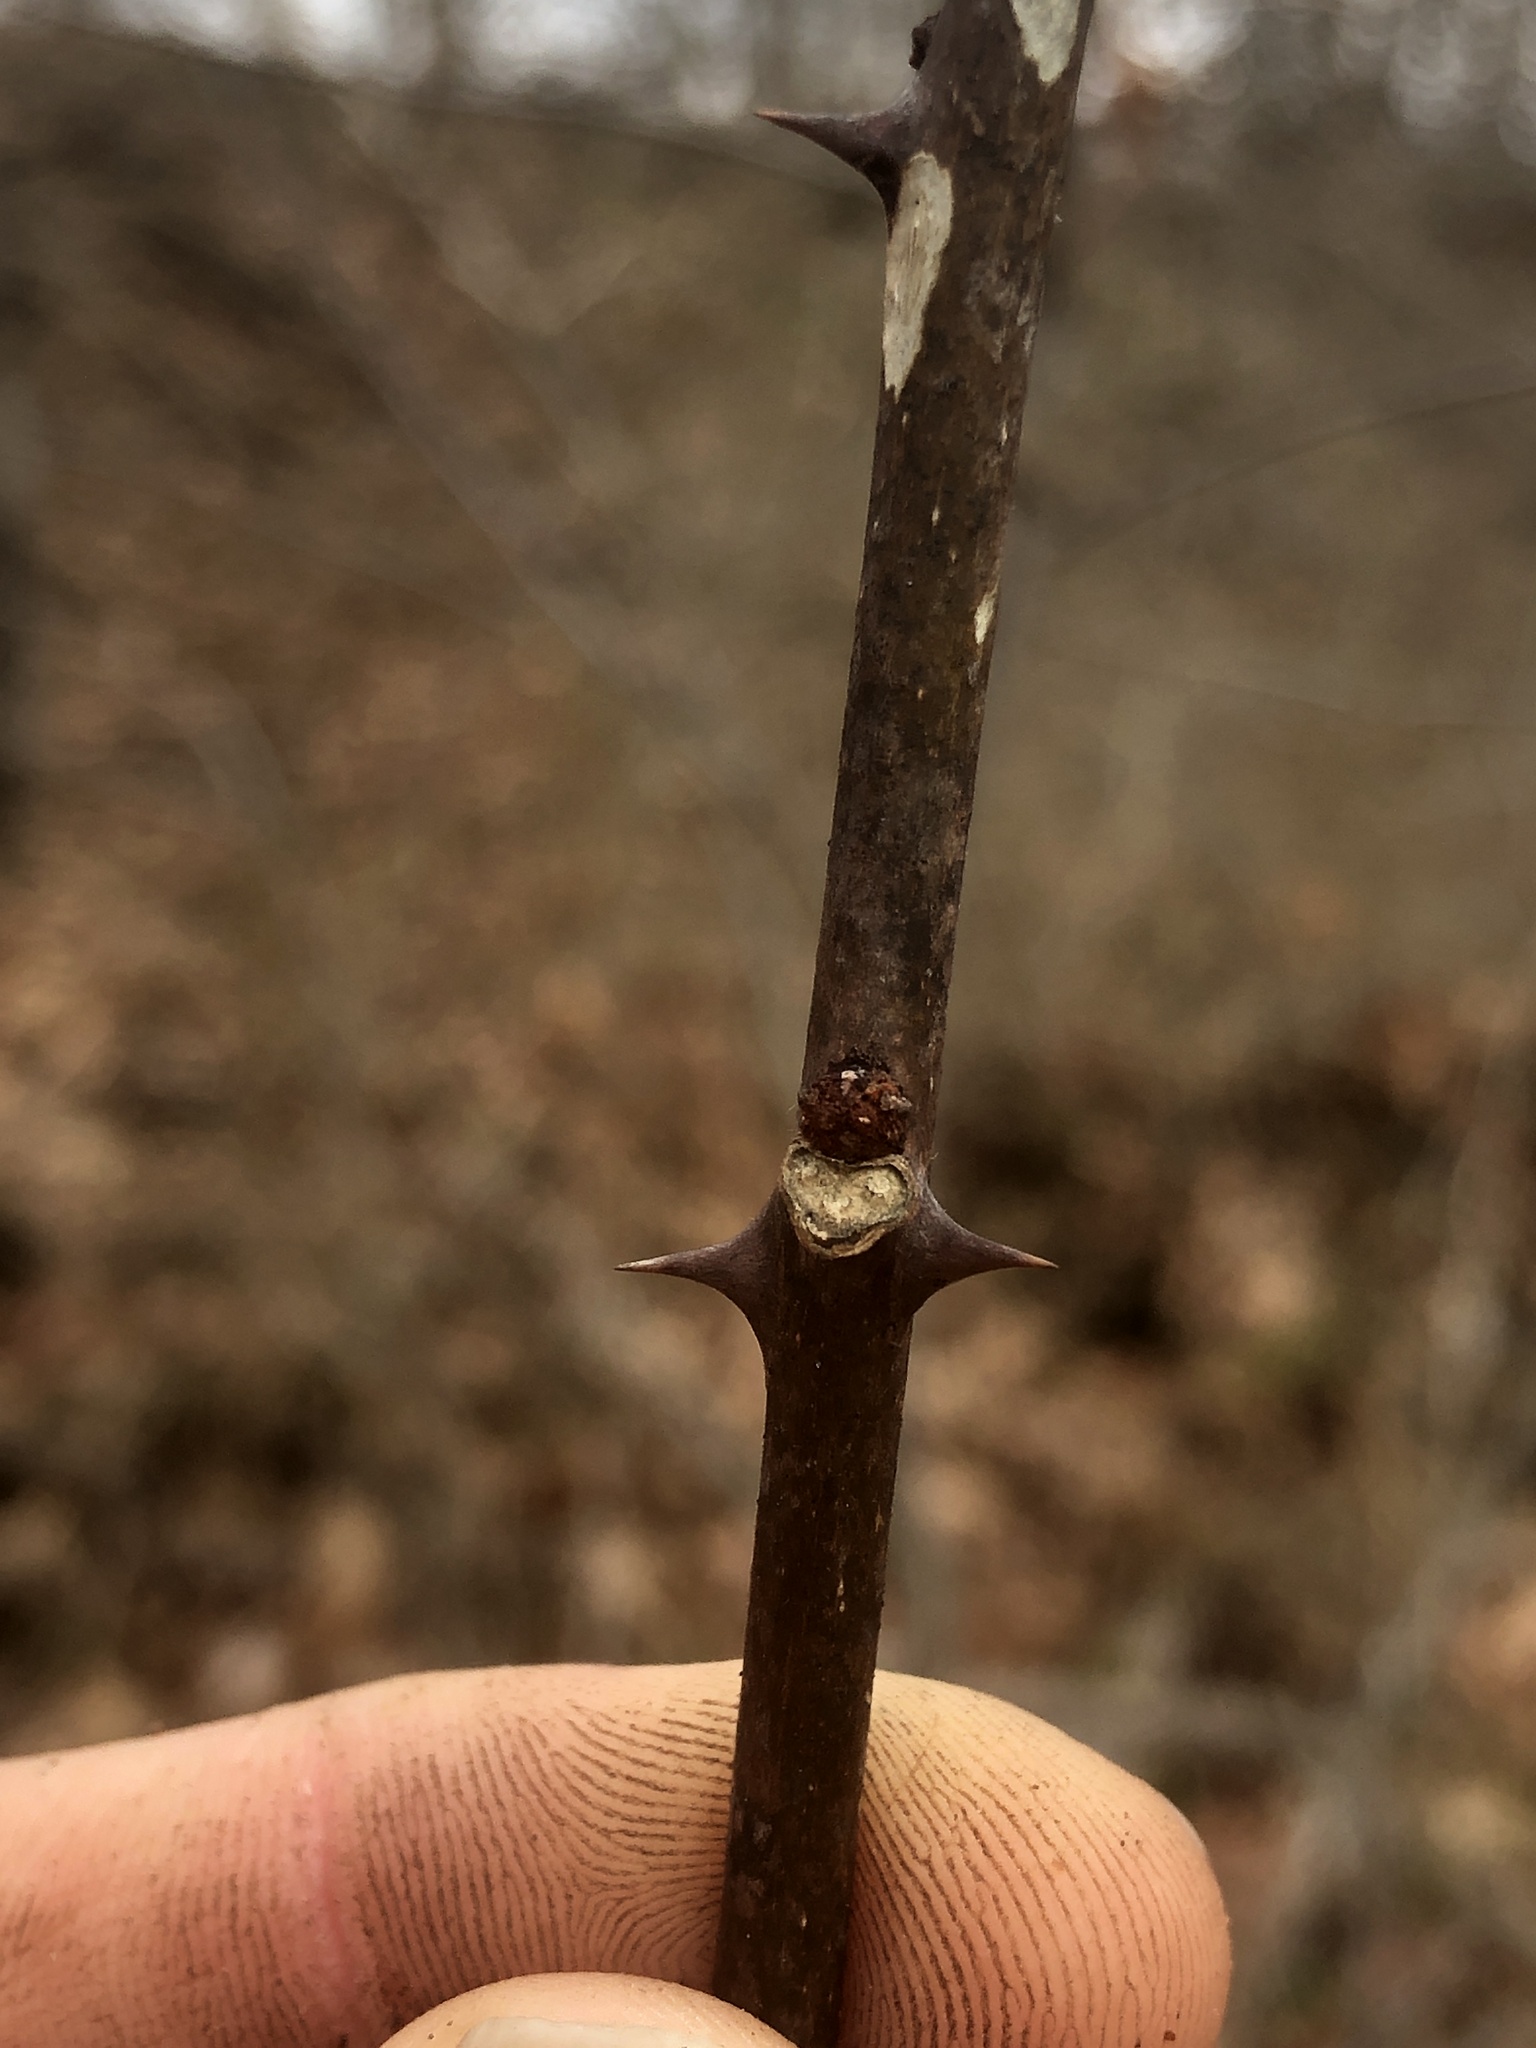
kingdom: Plantae
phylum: Tracheophyta
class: Magnoliopsida
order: Sapindales
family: Rutaceae
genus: Zanthoxylum
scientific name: Zanthoxylum americanum
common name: Northern prickly-ash
